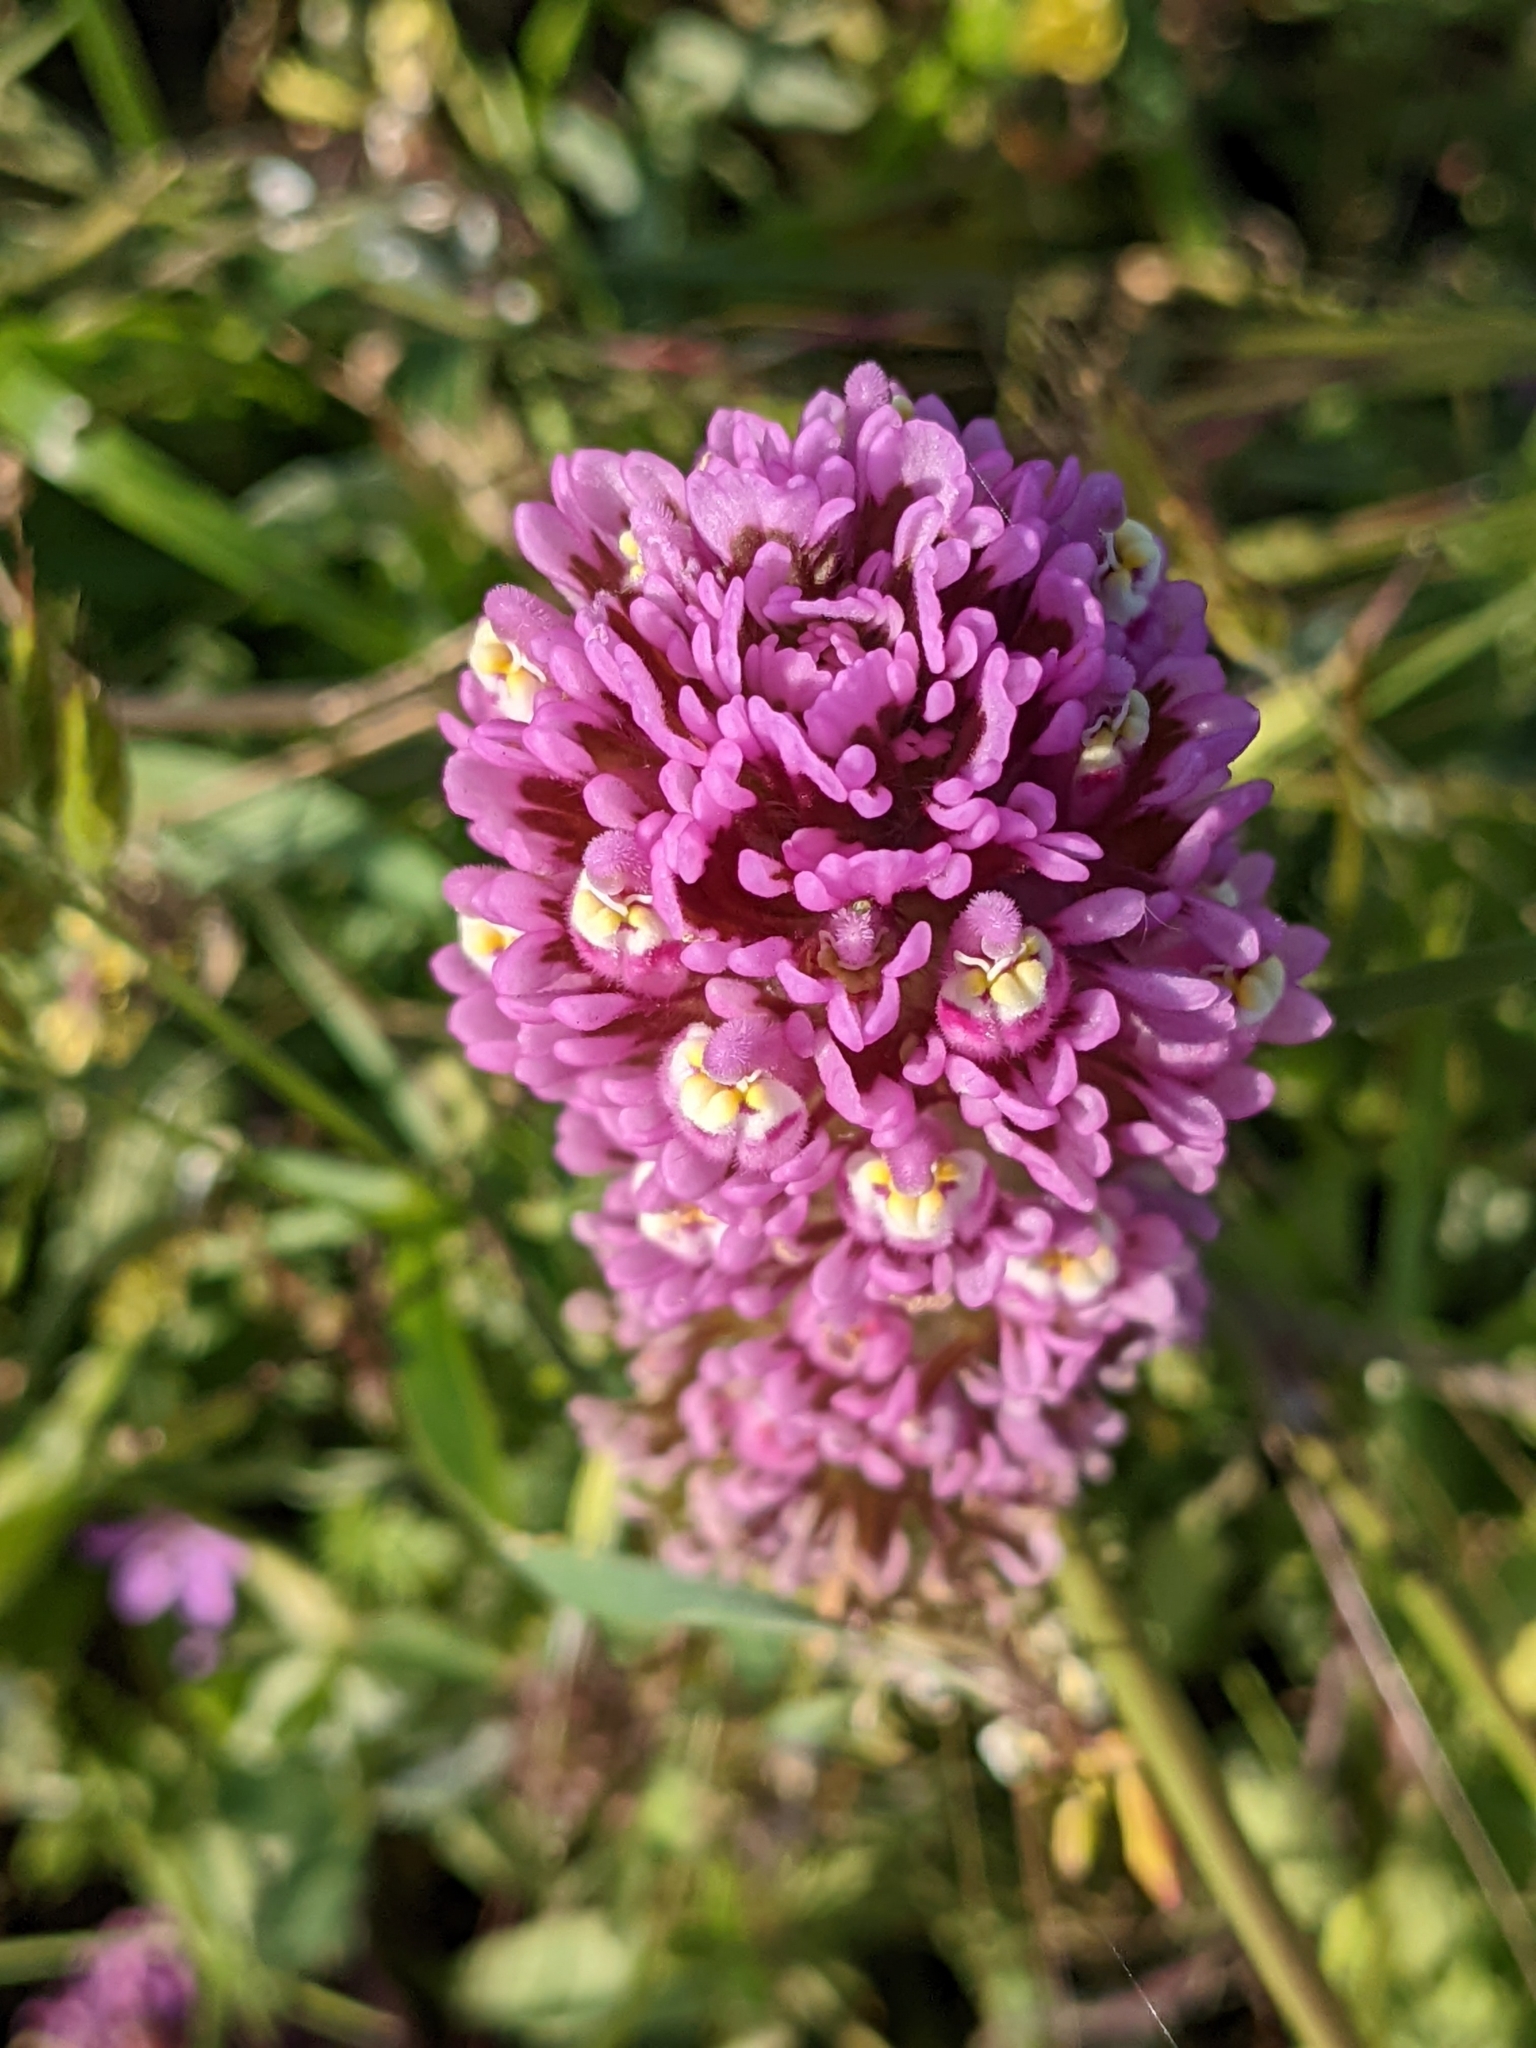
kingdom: Plantae
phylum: Tracheophyta
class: Magnoliopsida
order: Lamiales
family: Orobanchaceae
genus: Castilleja
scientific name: Castilleja exserta
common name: Purple owl-clover
